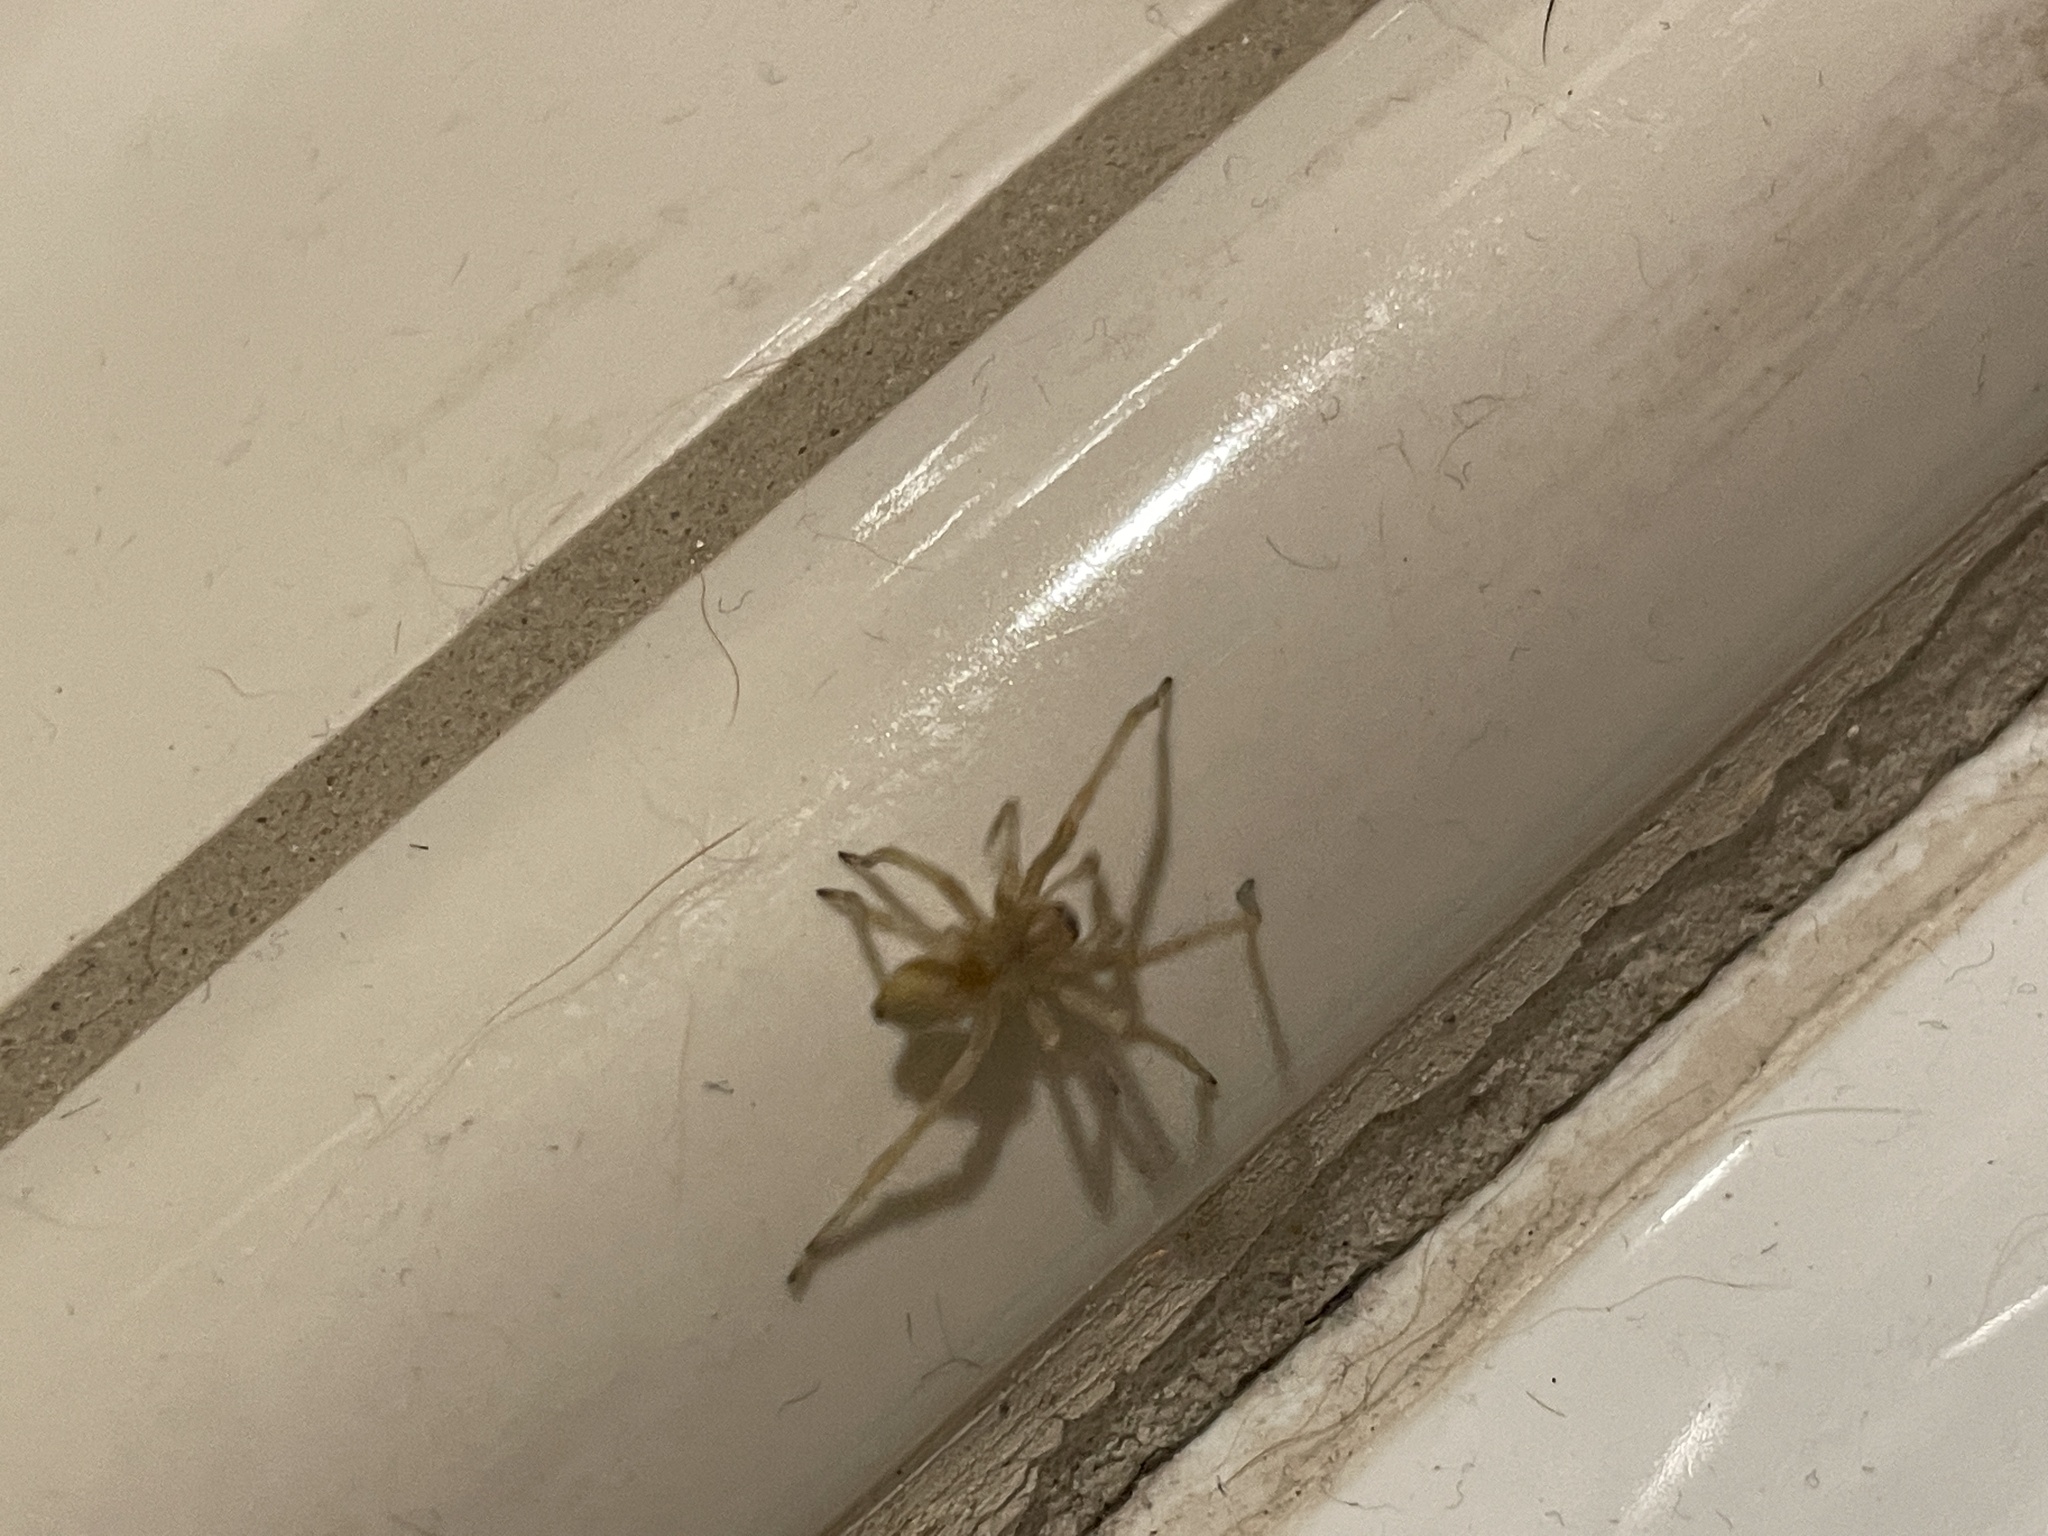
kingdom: Animalia
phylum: Arthropoda
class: Arachnida
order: Araneae
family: Cheiracanthiidae
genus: Cheiracanthium
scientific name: Cheiracanthium mildei
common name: Northern yellow sac spider
